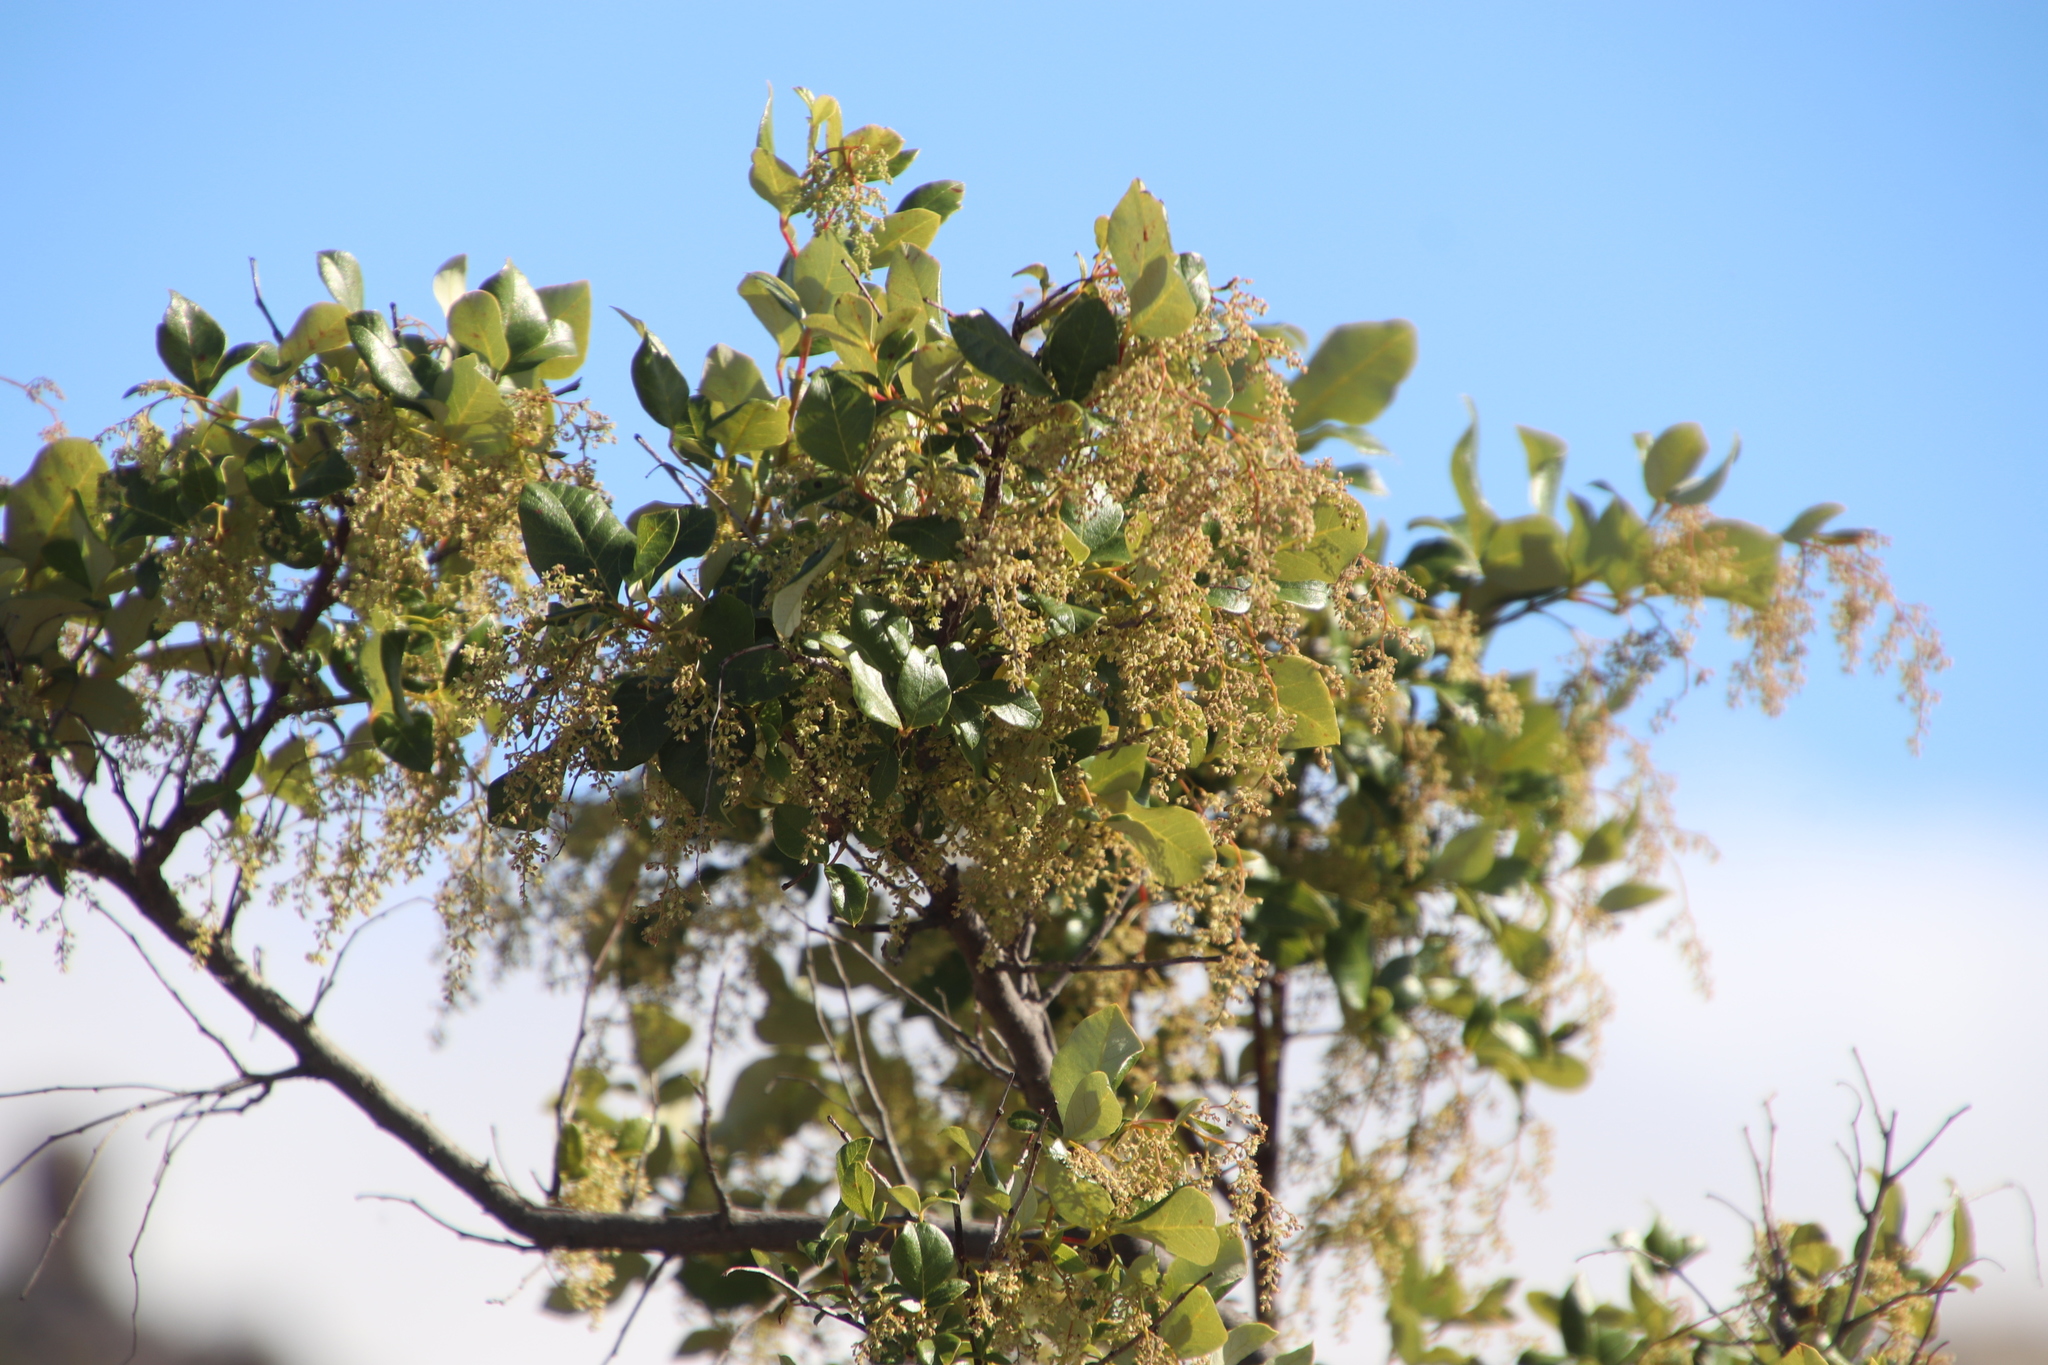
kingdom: Plantae
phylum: Tracheophyta
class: Magnoliopsida
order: Sapindales
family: Anacardiaceae
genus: Searsia
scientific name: Searsia tomentosa
